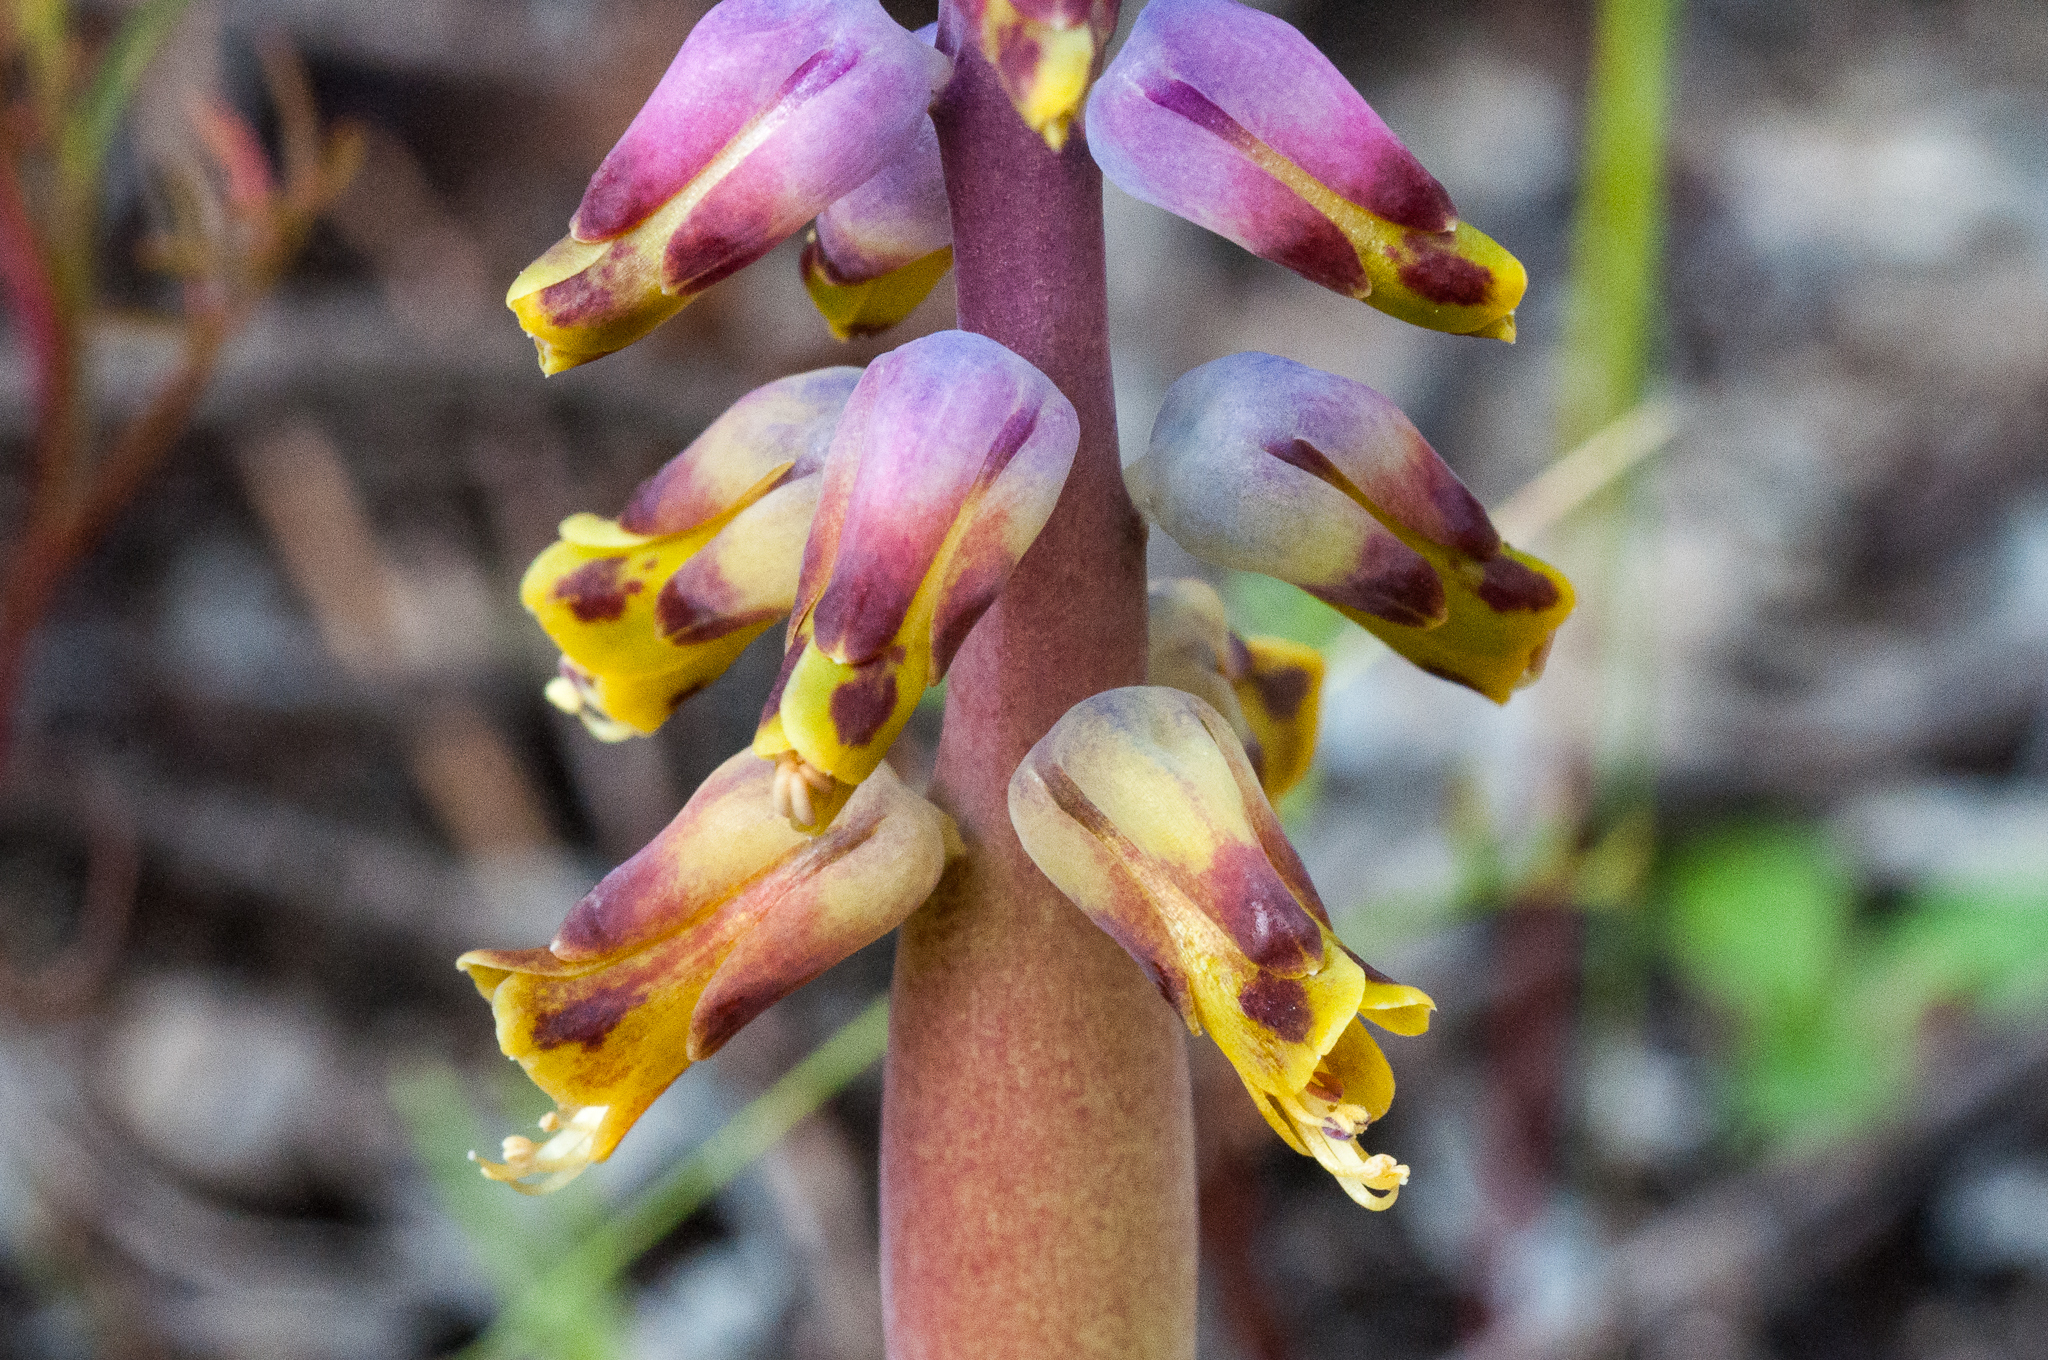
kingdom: Plantae
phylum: Tracheophyta
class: Liliopsida
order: Asparagales
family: Asparagaceae
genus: Lachenalia
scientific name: Lachenalia mutabilis
